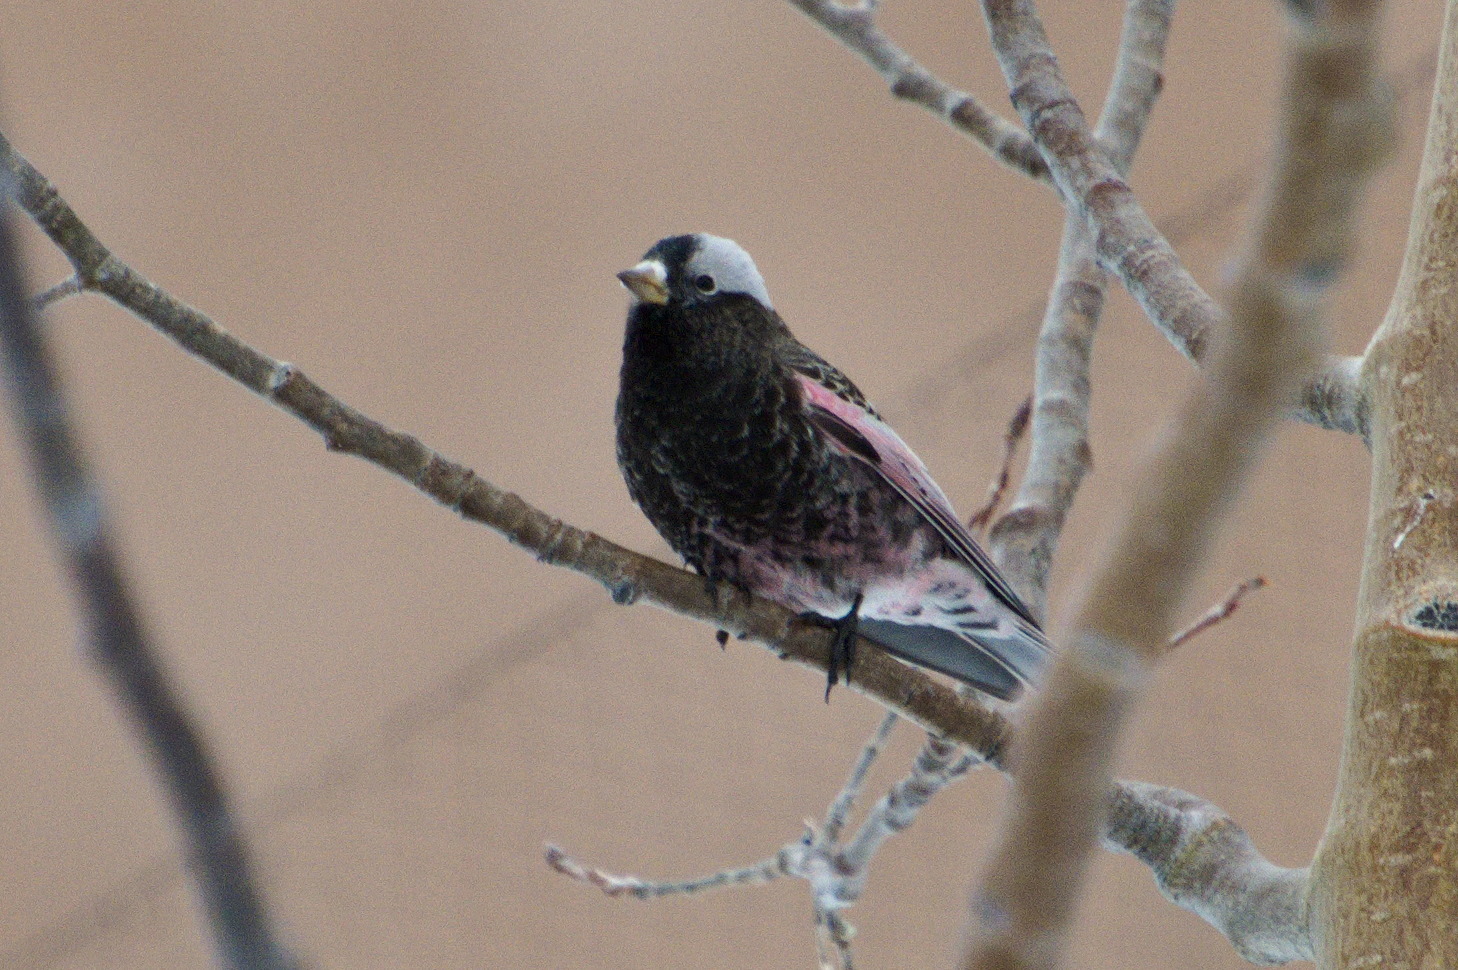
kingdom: Animalia
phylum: Chordata
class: Aves
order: Passeriformes
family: Fringillidae
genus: Leucosticte
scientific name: Leucosticte atrata
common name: Black rosy-finch
